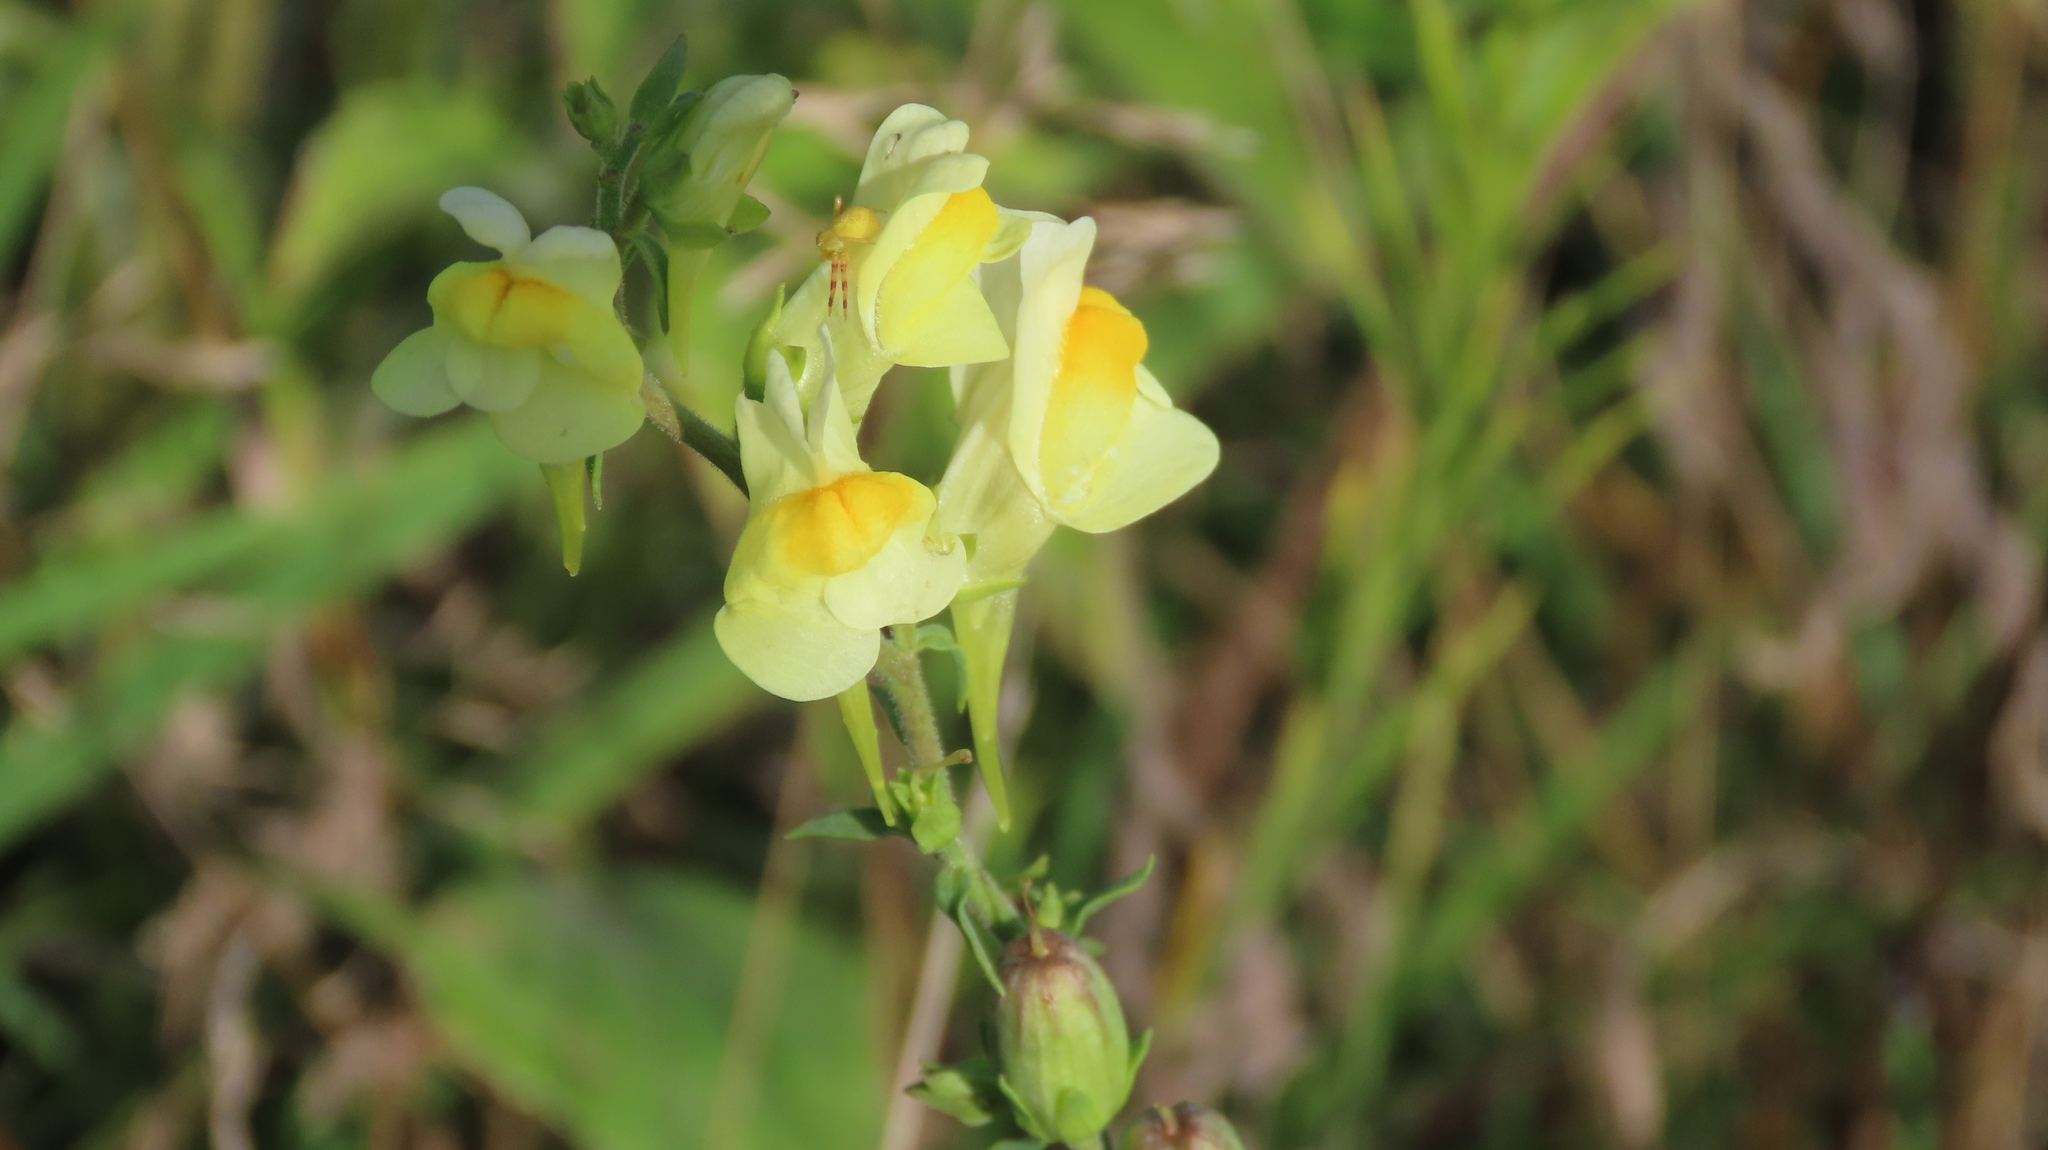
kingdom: Plantae
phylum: Tracheophyta
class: Magnoliopsida
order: Lamiales
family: Plantaginaceae
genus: Linaria
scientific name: Linaria vulgaris
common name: Butter and eggs
